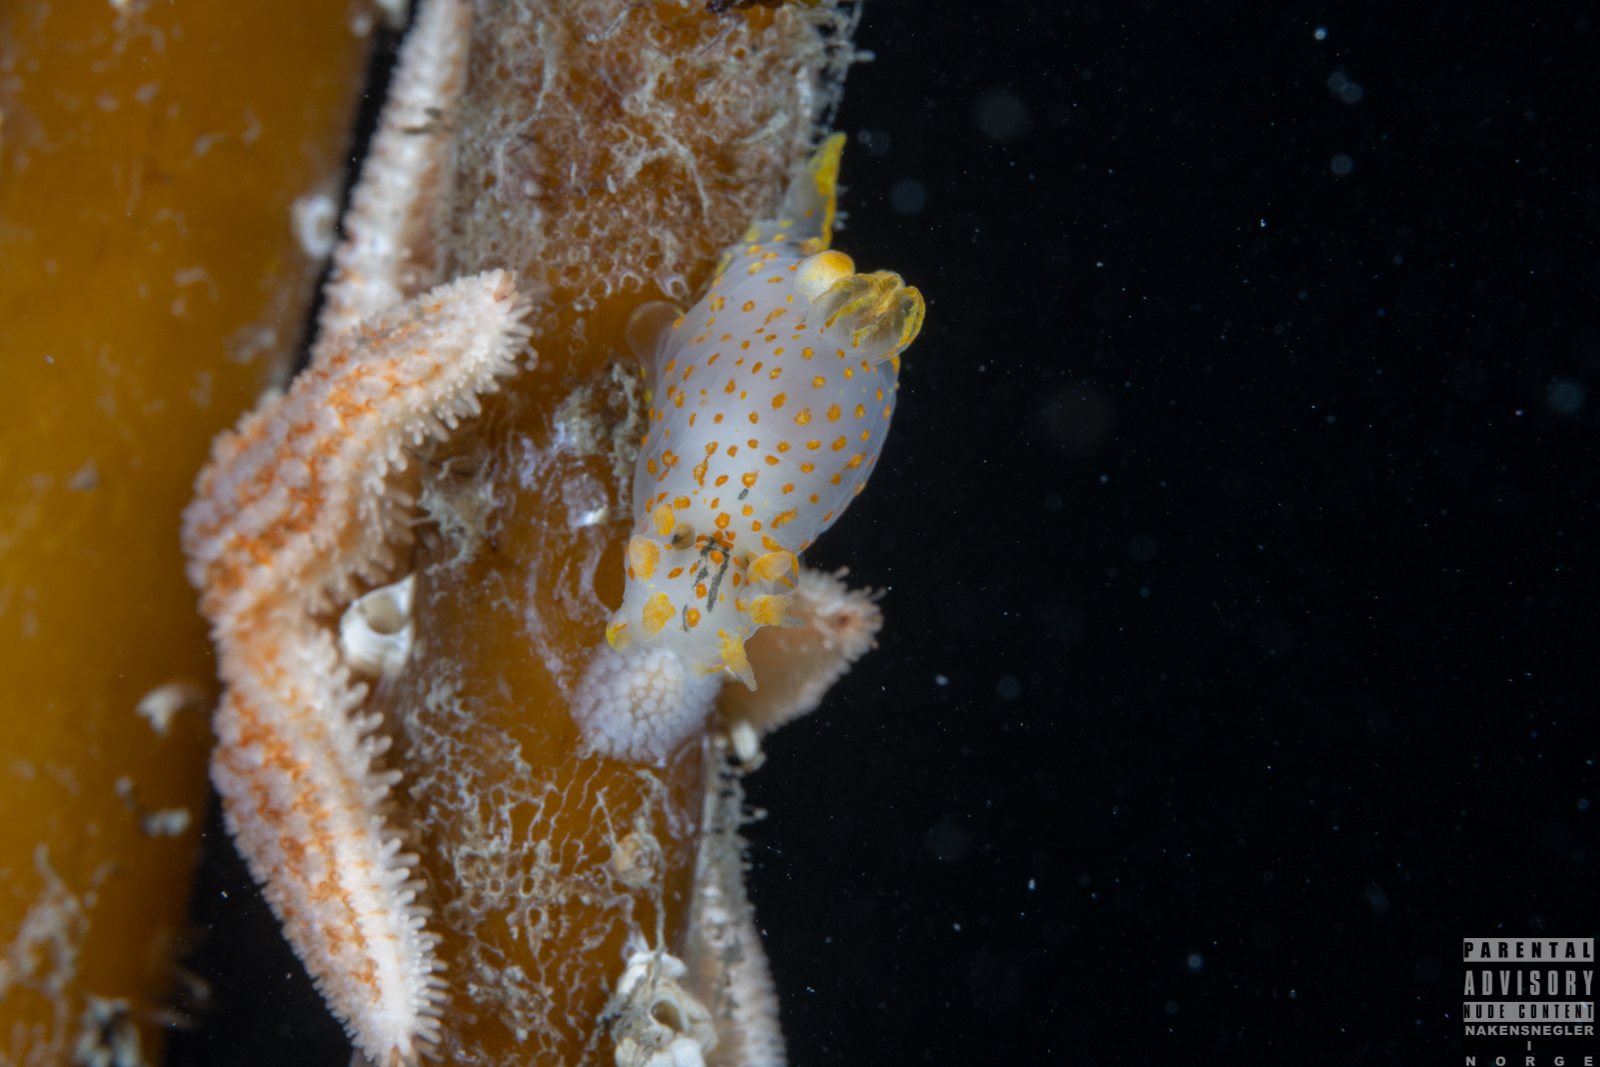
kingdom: Animalia
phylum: Mollusca
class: Gastropoda
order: Nudibranchia
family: Polyceridae
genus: Polycera
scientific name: Polycera quadrilineata
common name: Four-striped polycera
